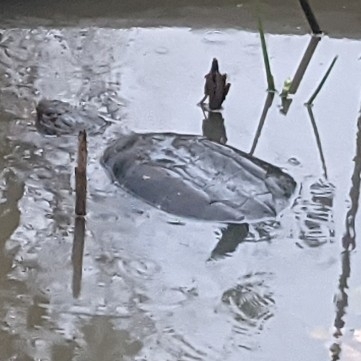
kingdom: Animalia
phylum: Chordata
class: Testudines
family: Chelydridae
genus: Chelydra
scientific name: Chelydra serpentina
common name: Common snapping turtle
